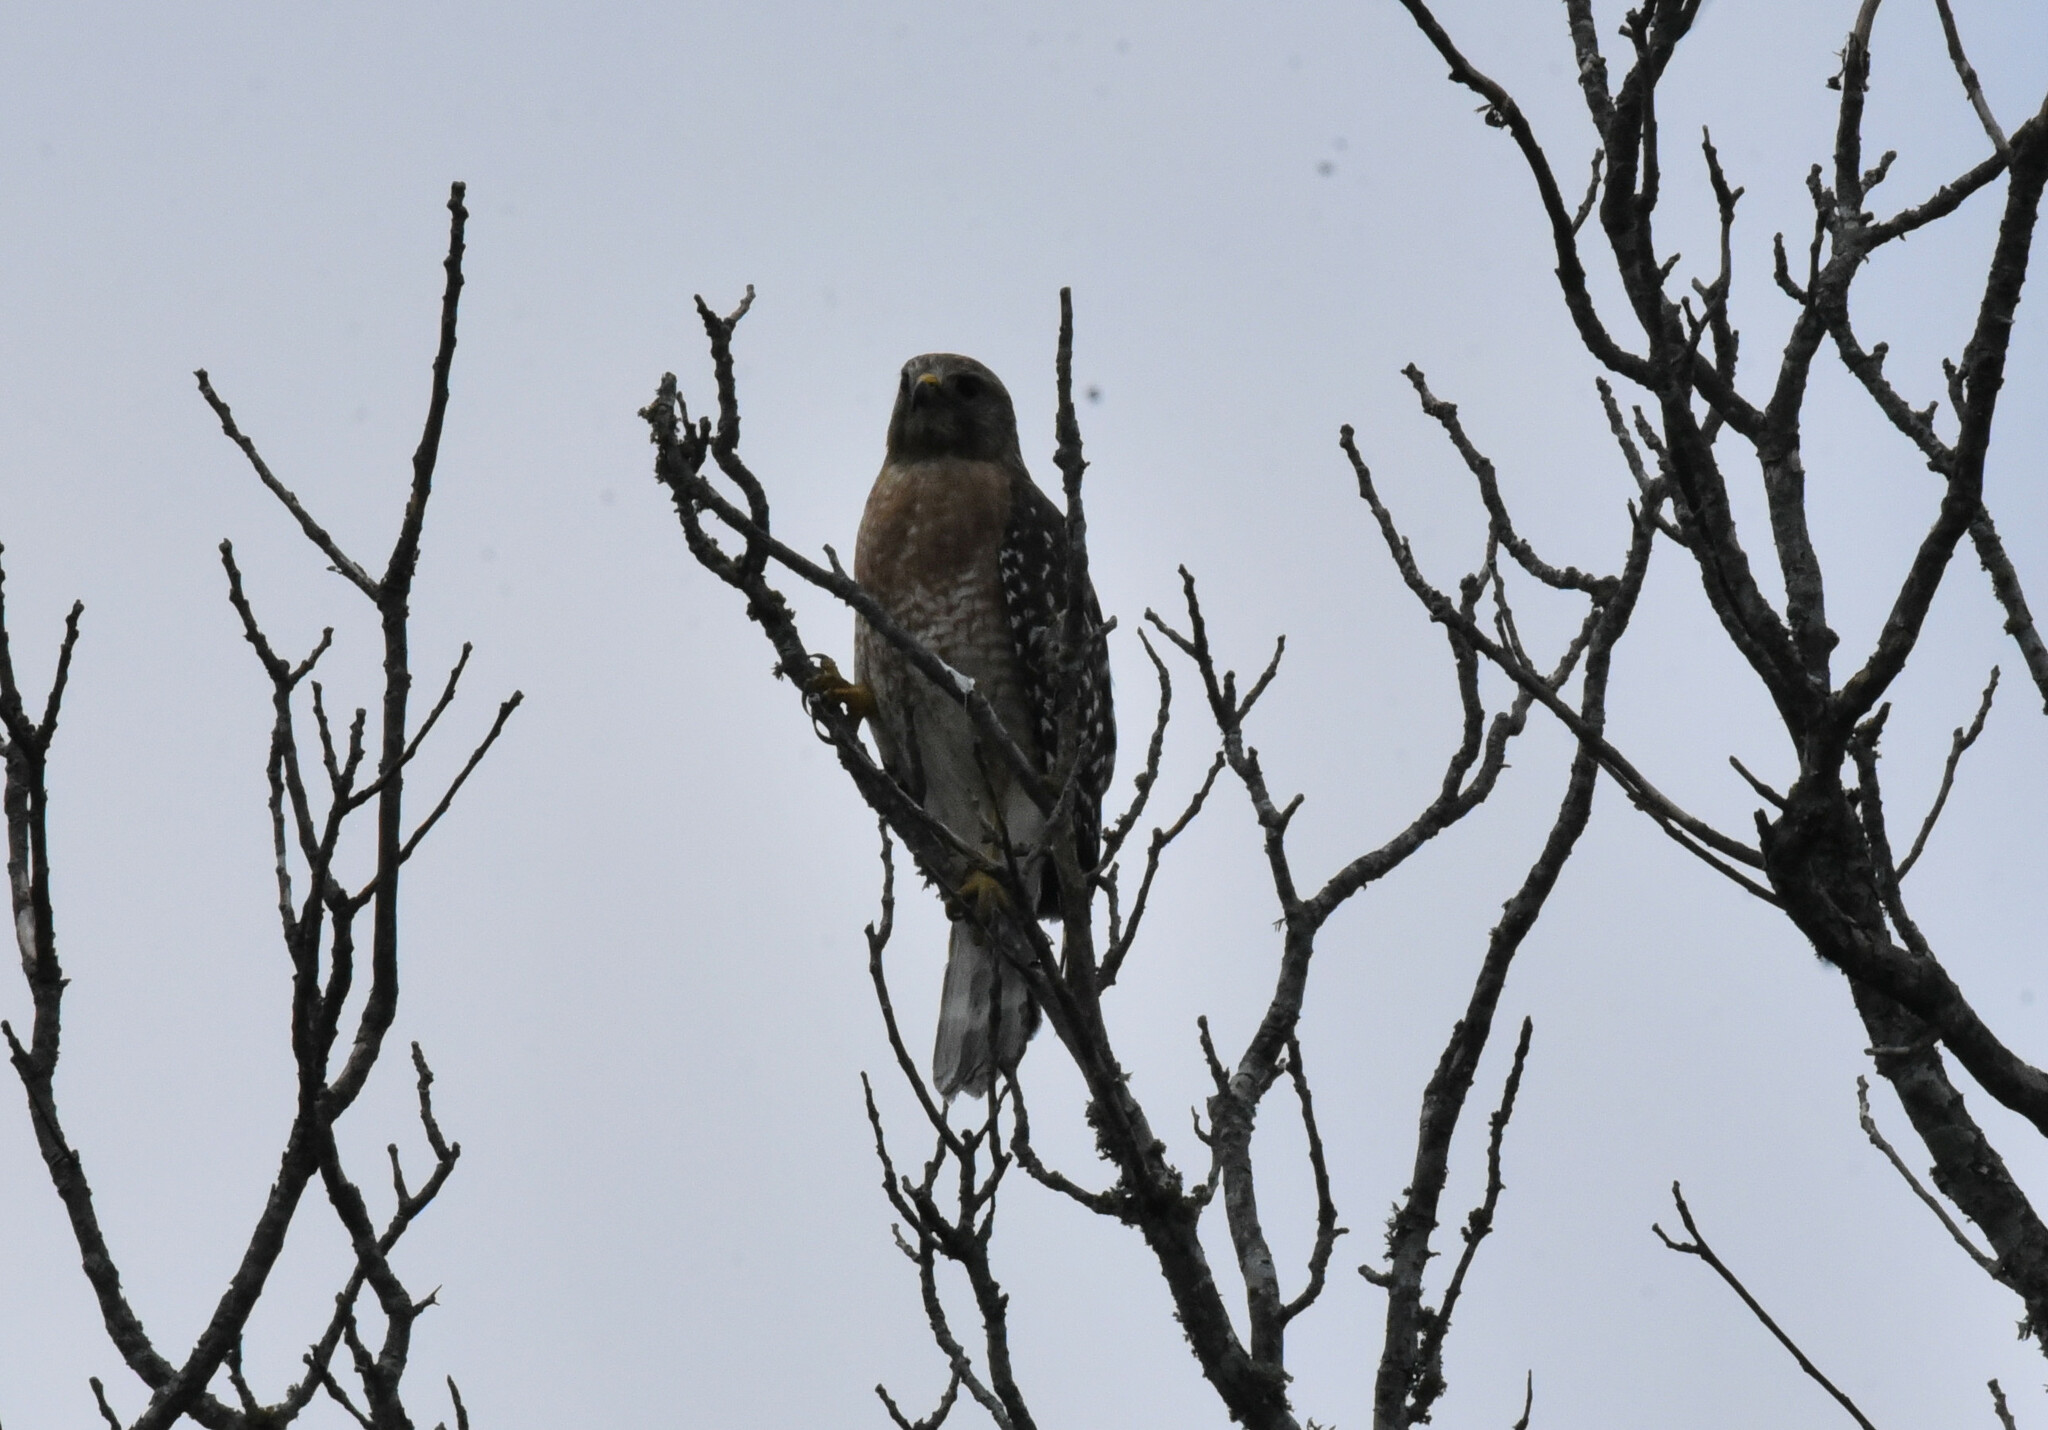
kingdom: Animalia
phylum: Chordata
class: Aves
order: Accipitriformes
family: Accipitridae
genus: Buteo
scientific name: Buteo lineatus
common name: Red-shouldered hawk
